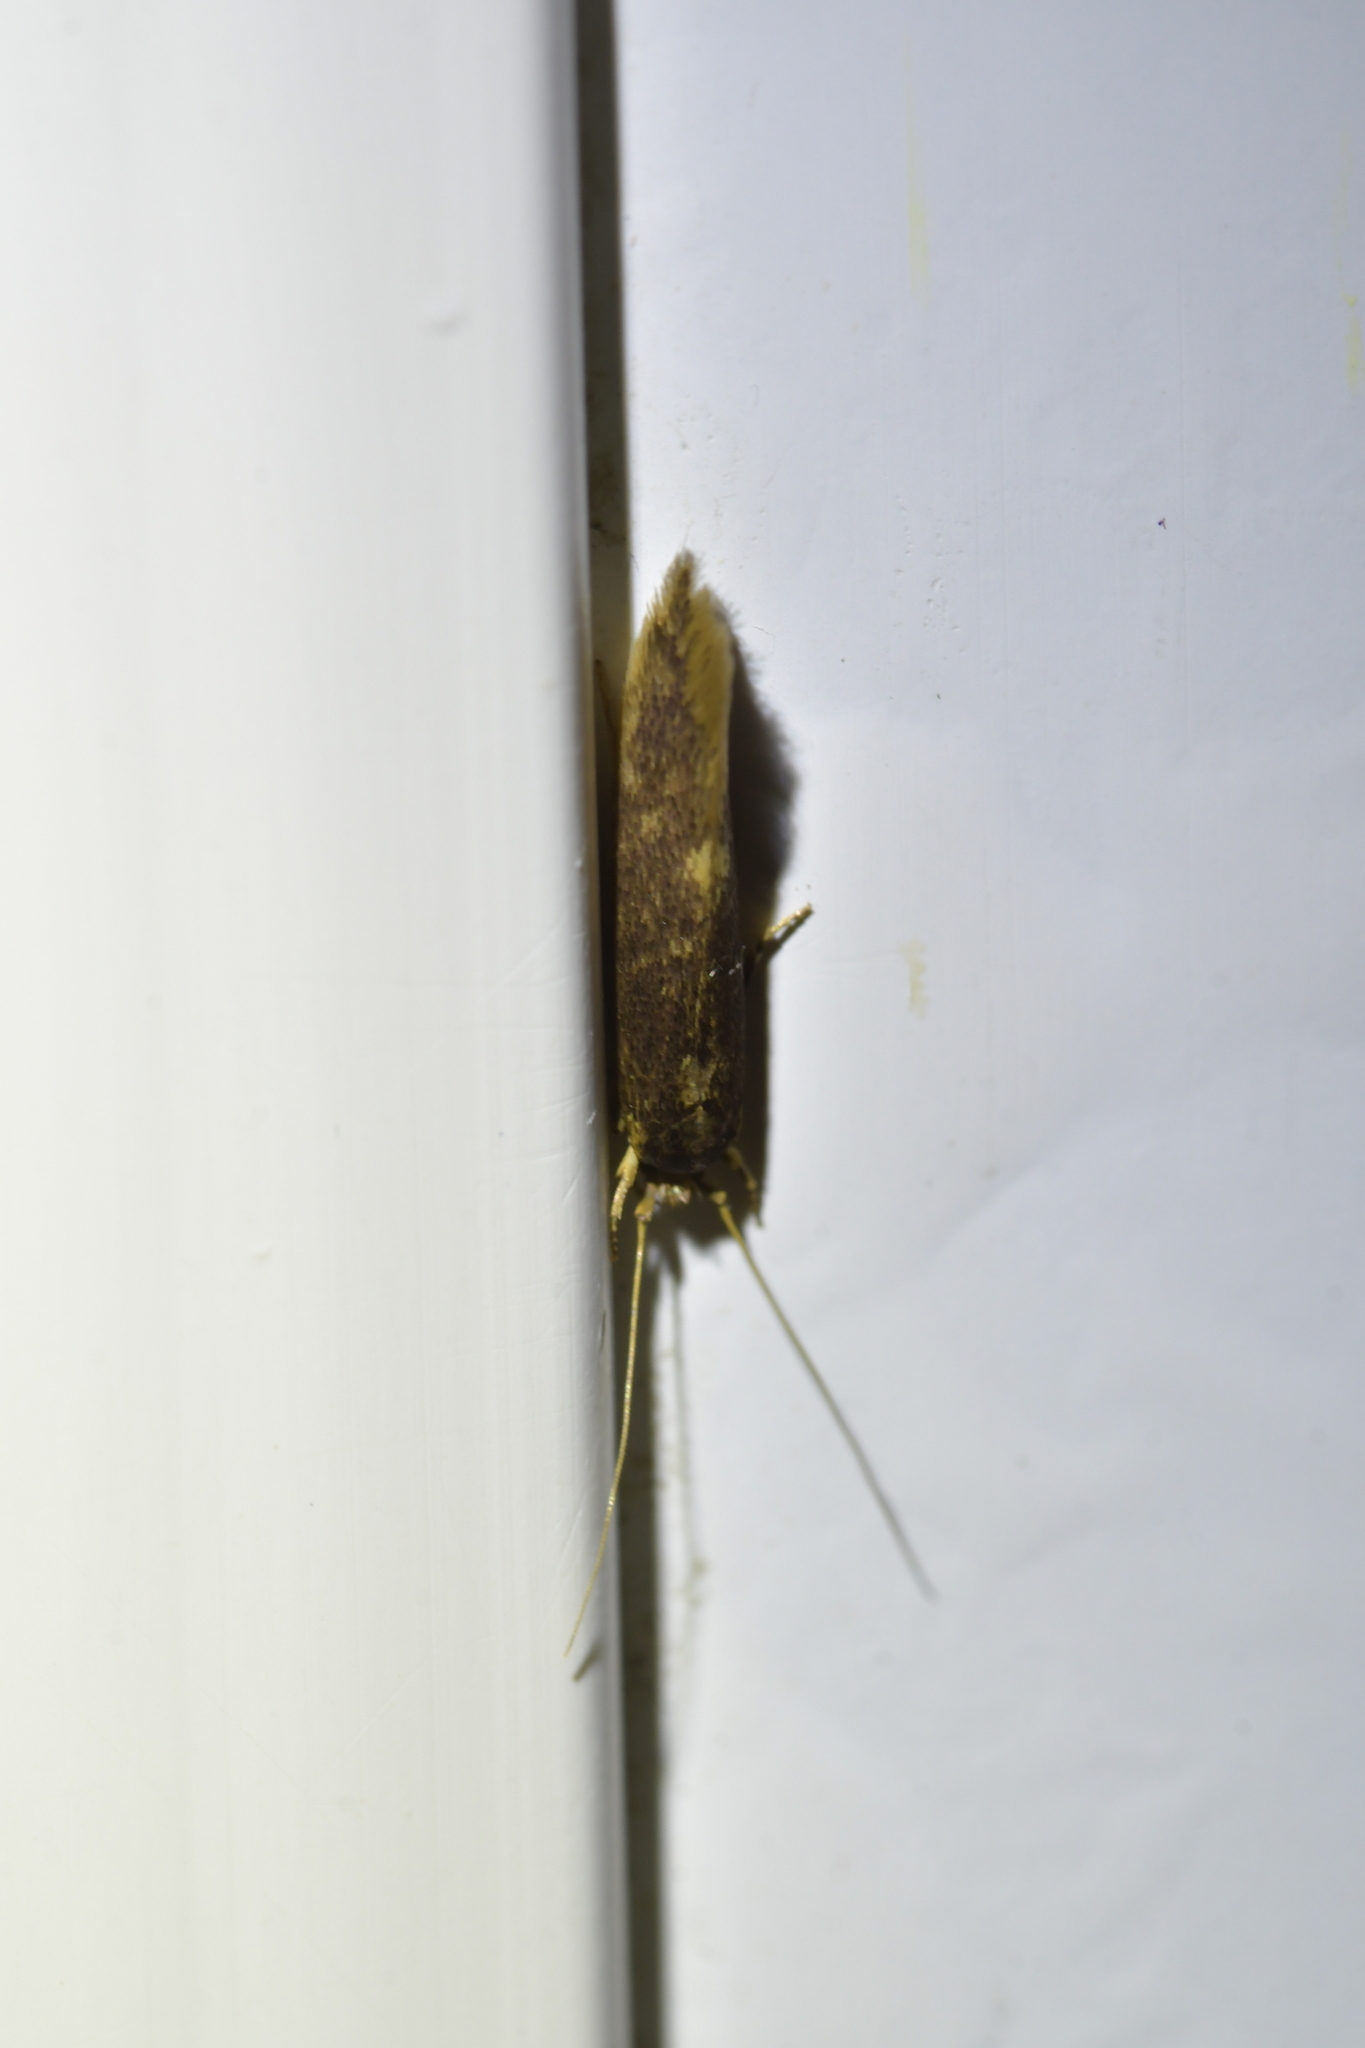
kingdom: Animalia
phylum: Arthropoda
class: Insecta
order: Lepidoptera
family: Tineidae
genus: Opogona
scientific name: Opogona omoscopa
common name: Moth
